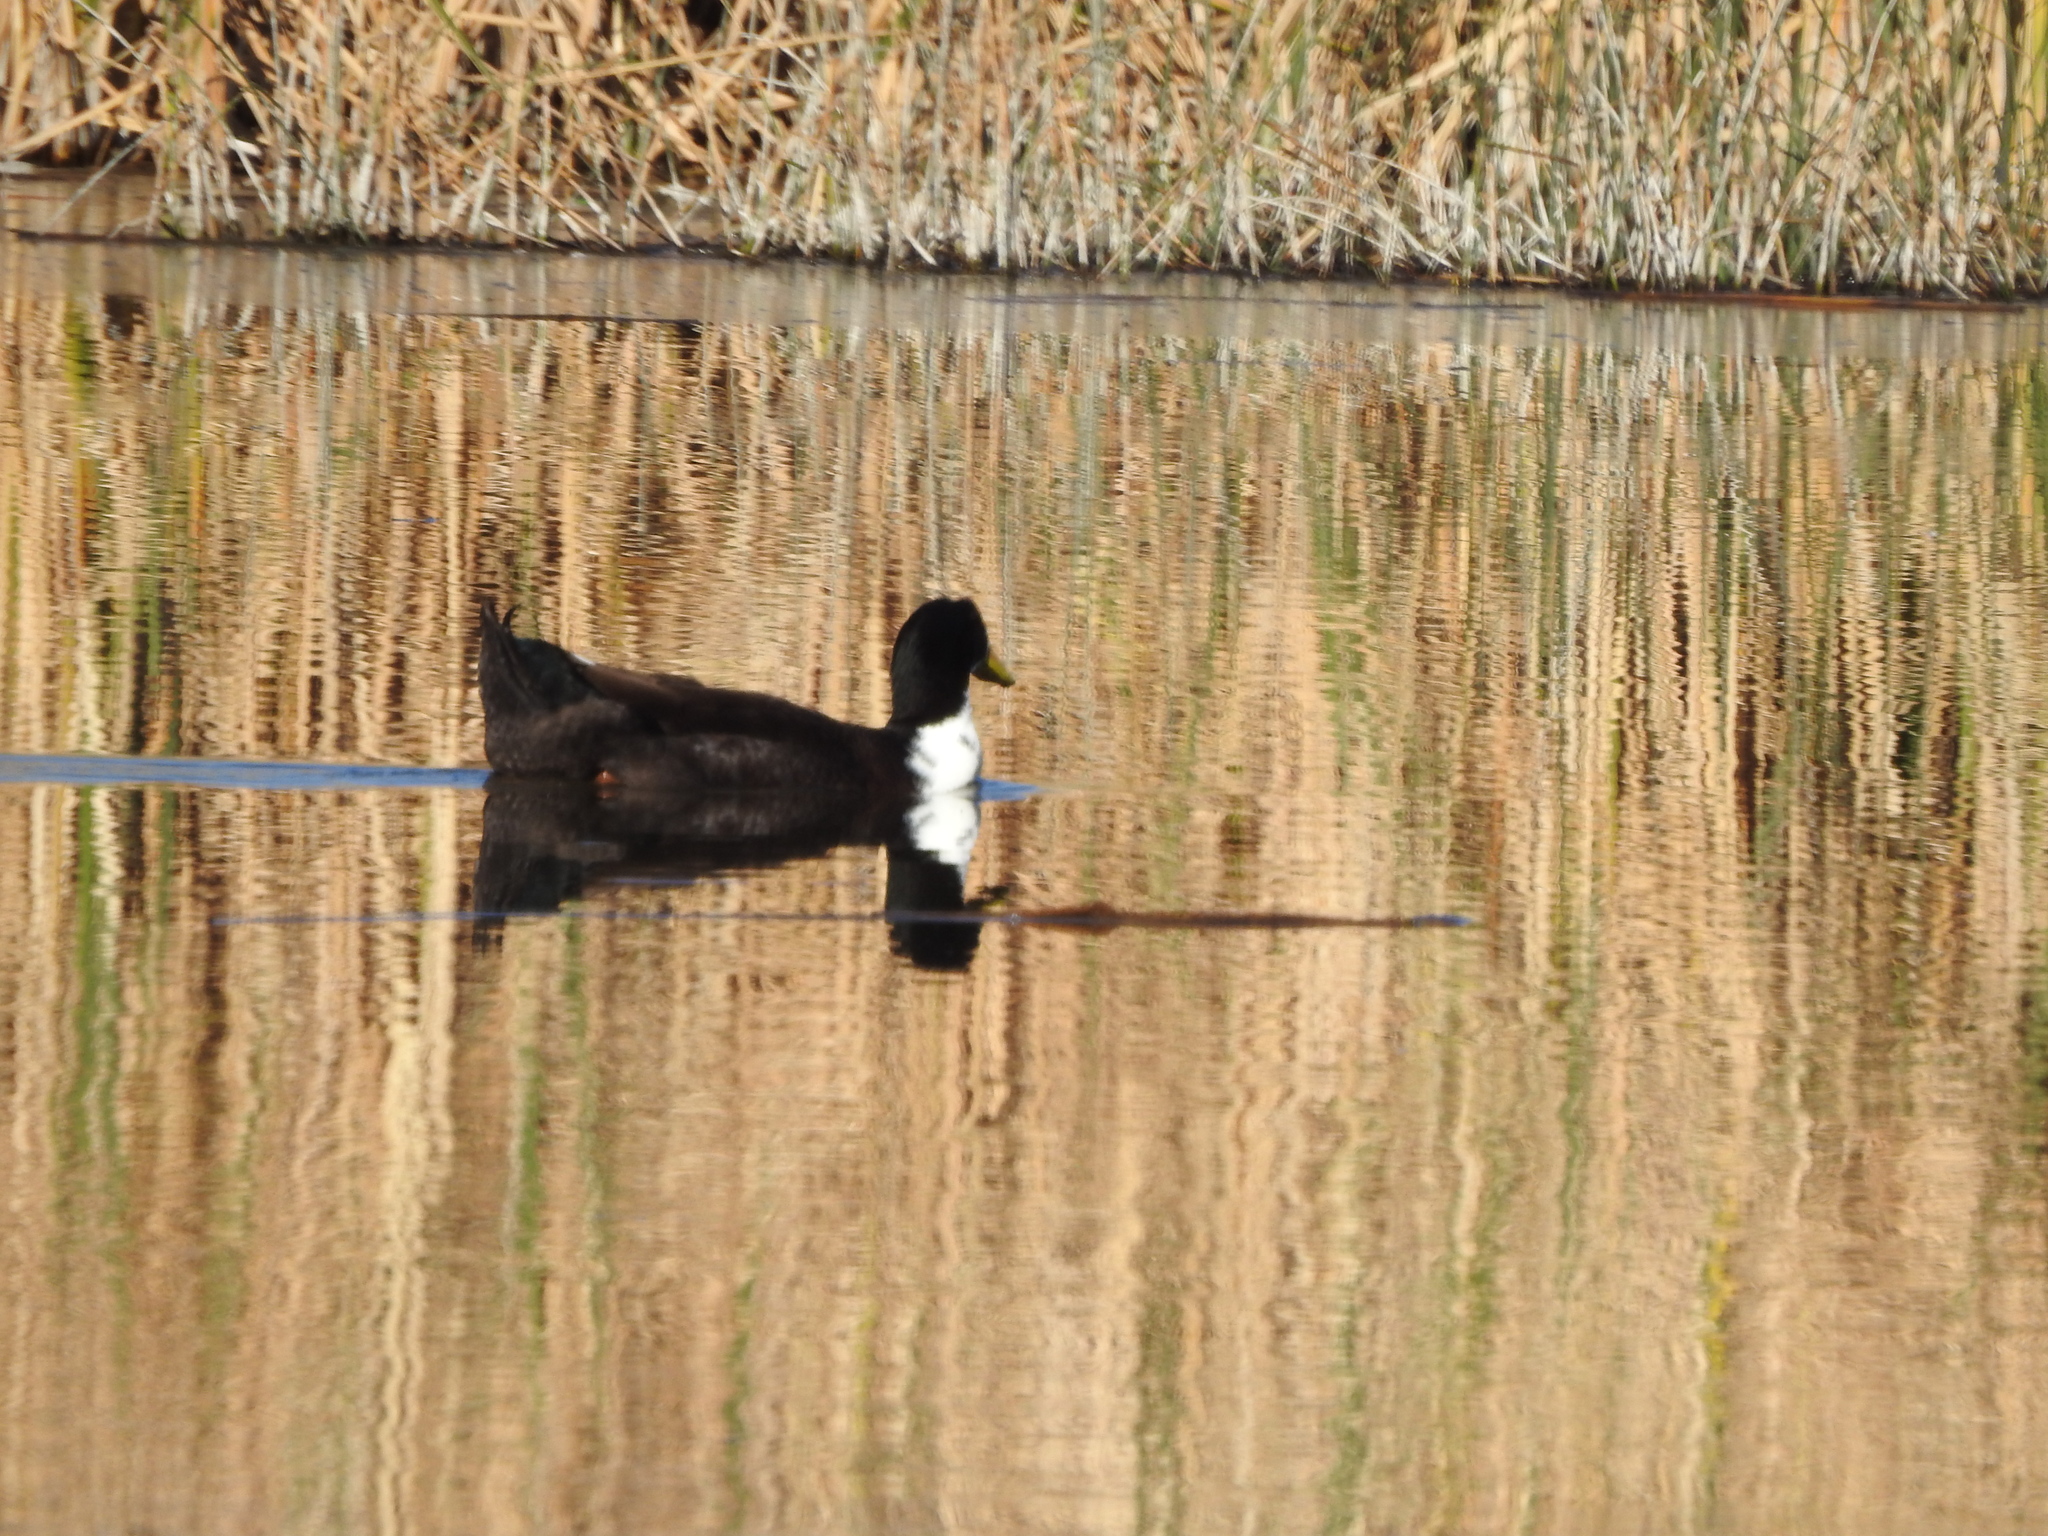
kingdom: Animalia
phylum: Chordata
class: Aves
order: Anseriformes
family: Anatidae
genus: Anas
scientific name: Anas platyrhynchos
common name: Mallard
